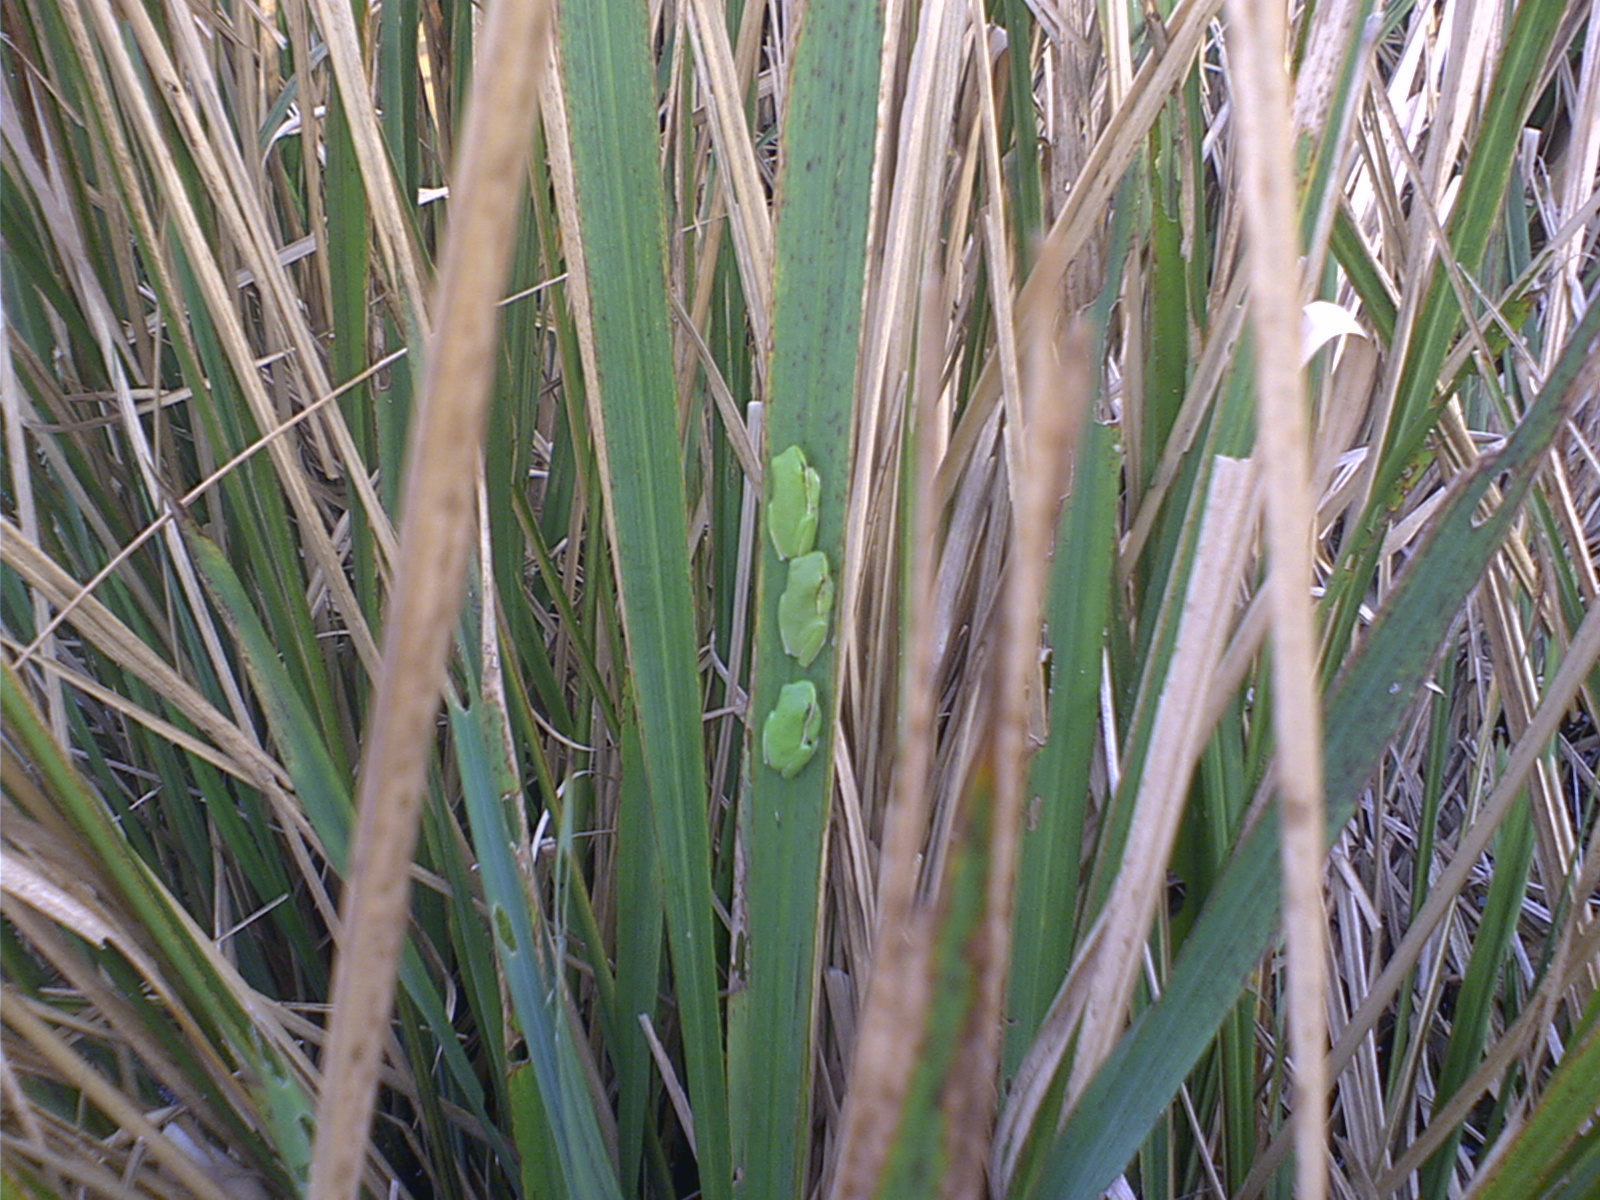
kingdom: Animalia
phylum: Chordata
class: Amphibia
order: Anura
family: Hylidae
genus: Dryophytes
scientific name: Dryophytes cinereus
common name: Green treefrog
